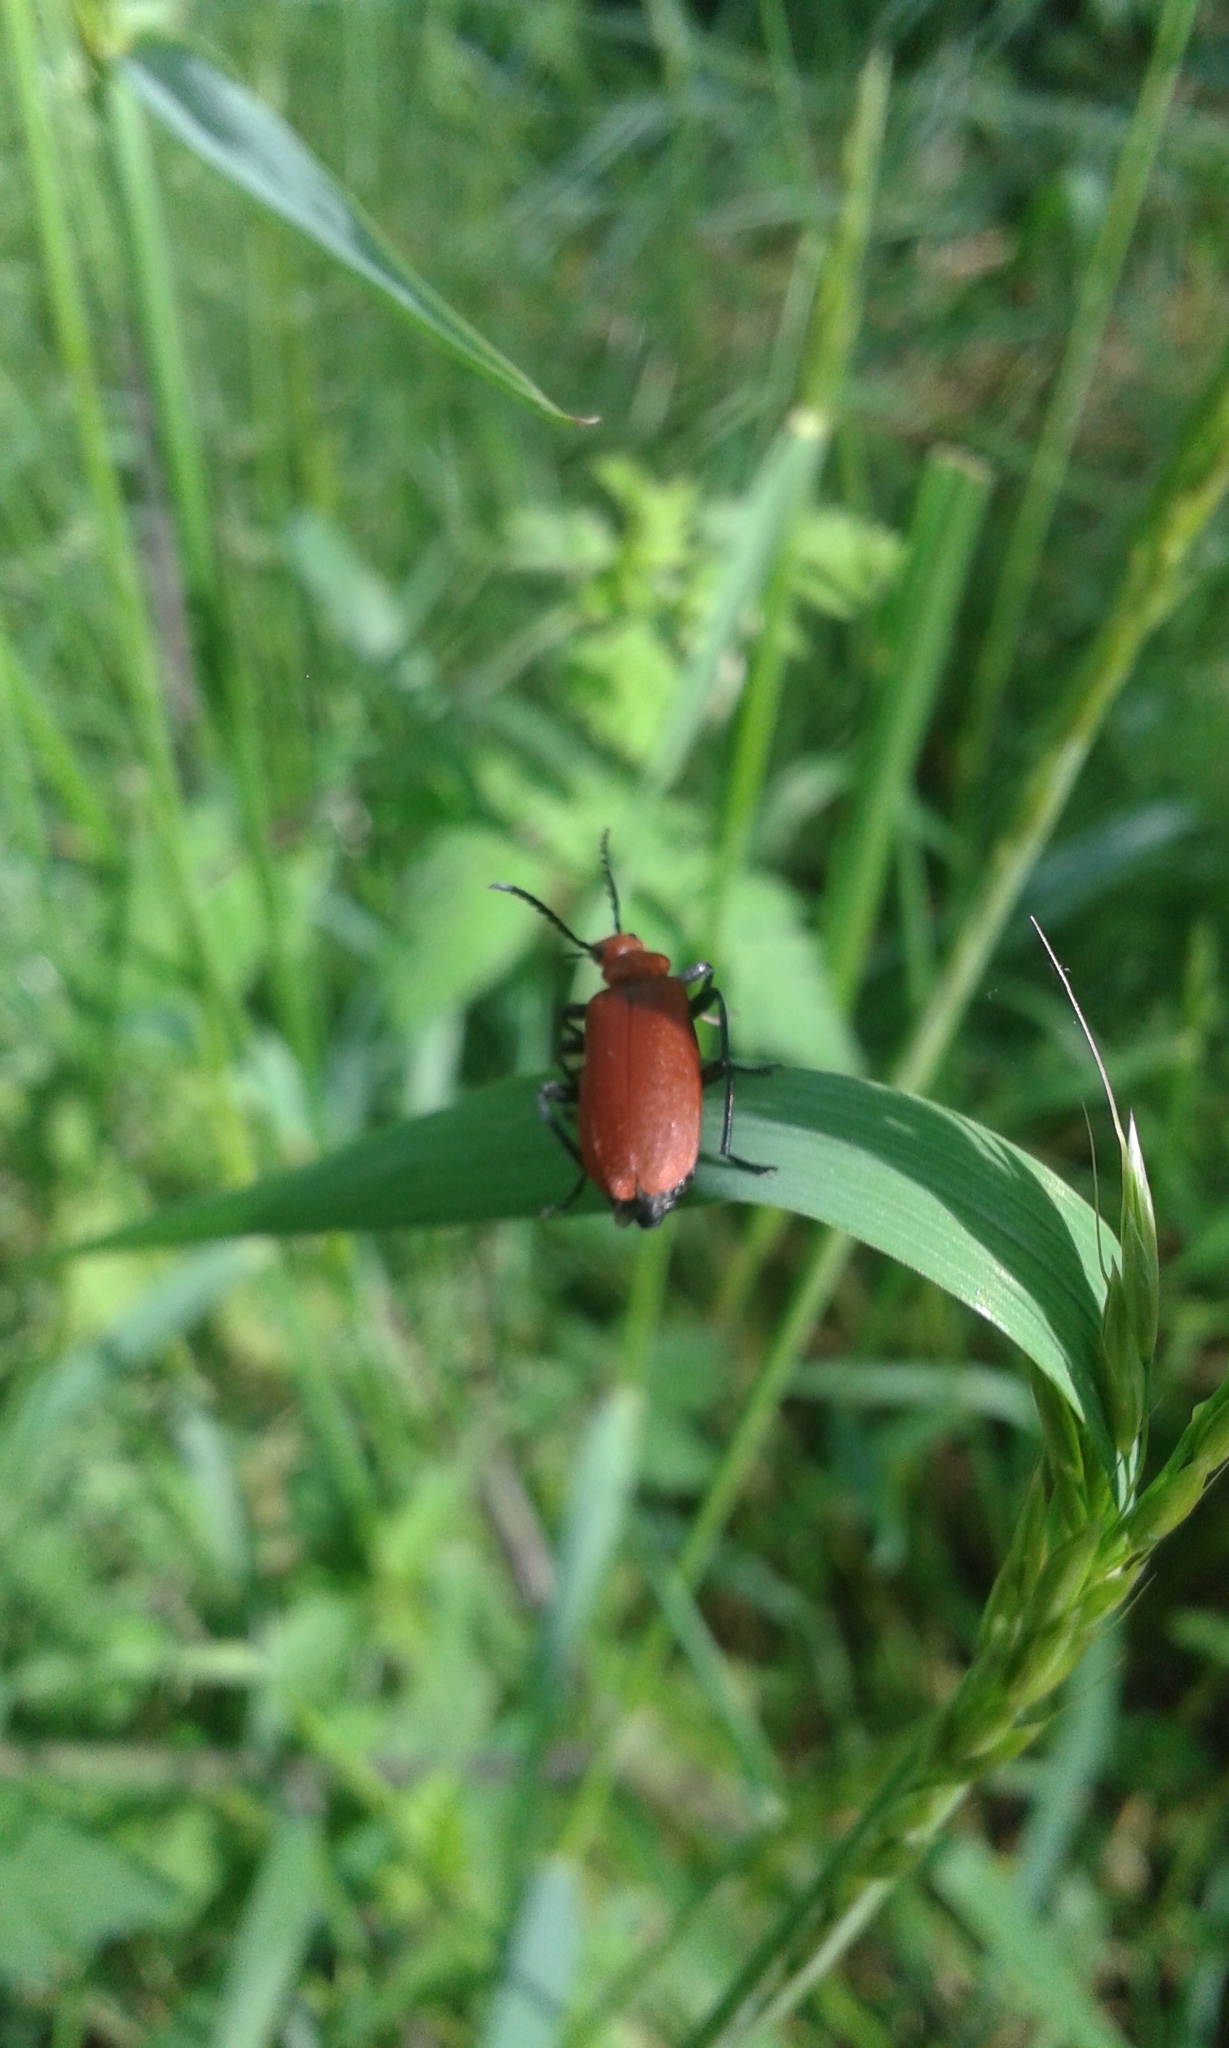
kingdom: Animalia
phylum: Arthropoda
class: Insecta
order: Coleoptera
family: Pyrochroidae
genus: Pyrochroa
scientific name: Pyrochroa serraticornis
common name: Red-headed cardinal beetle
